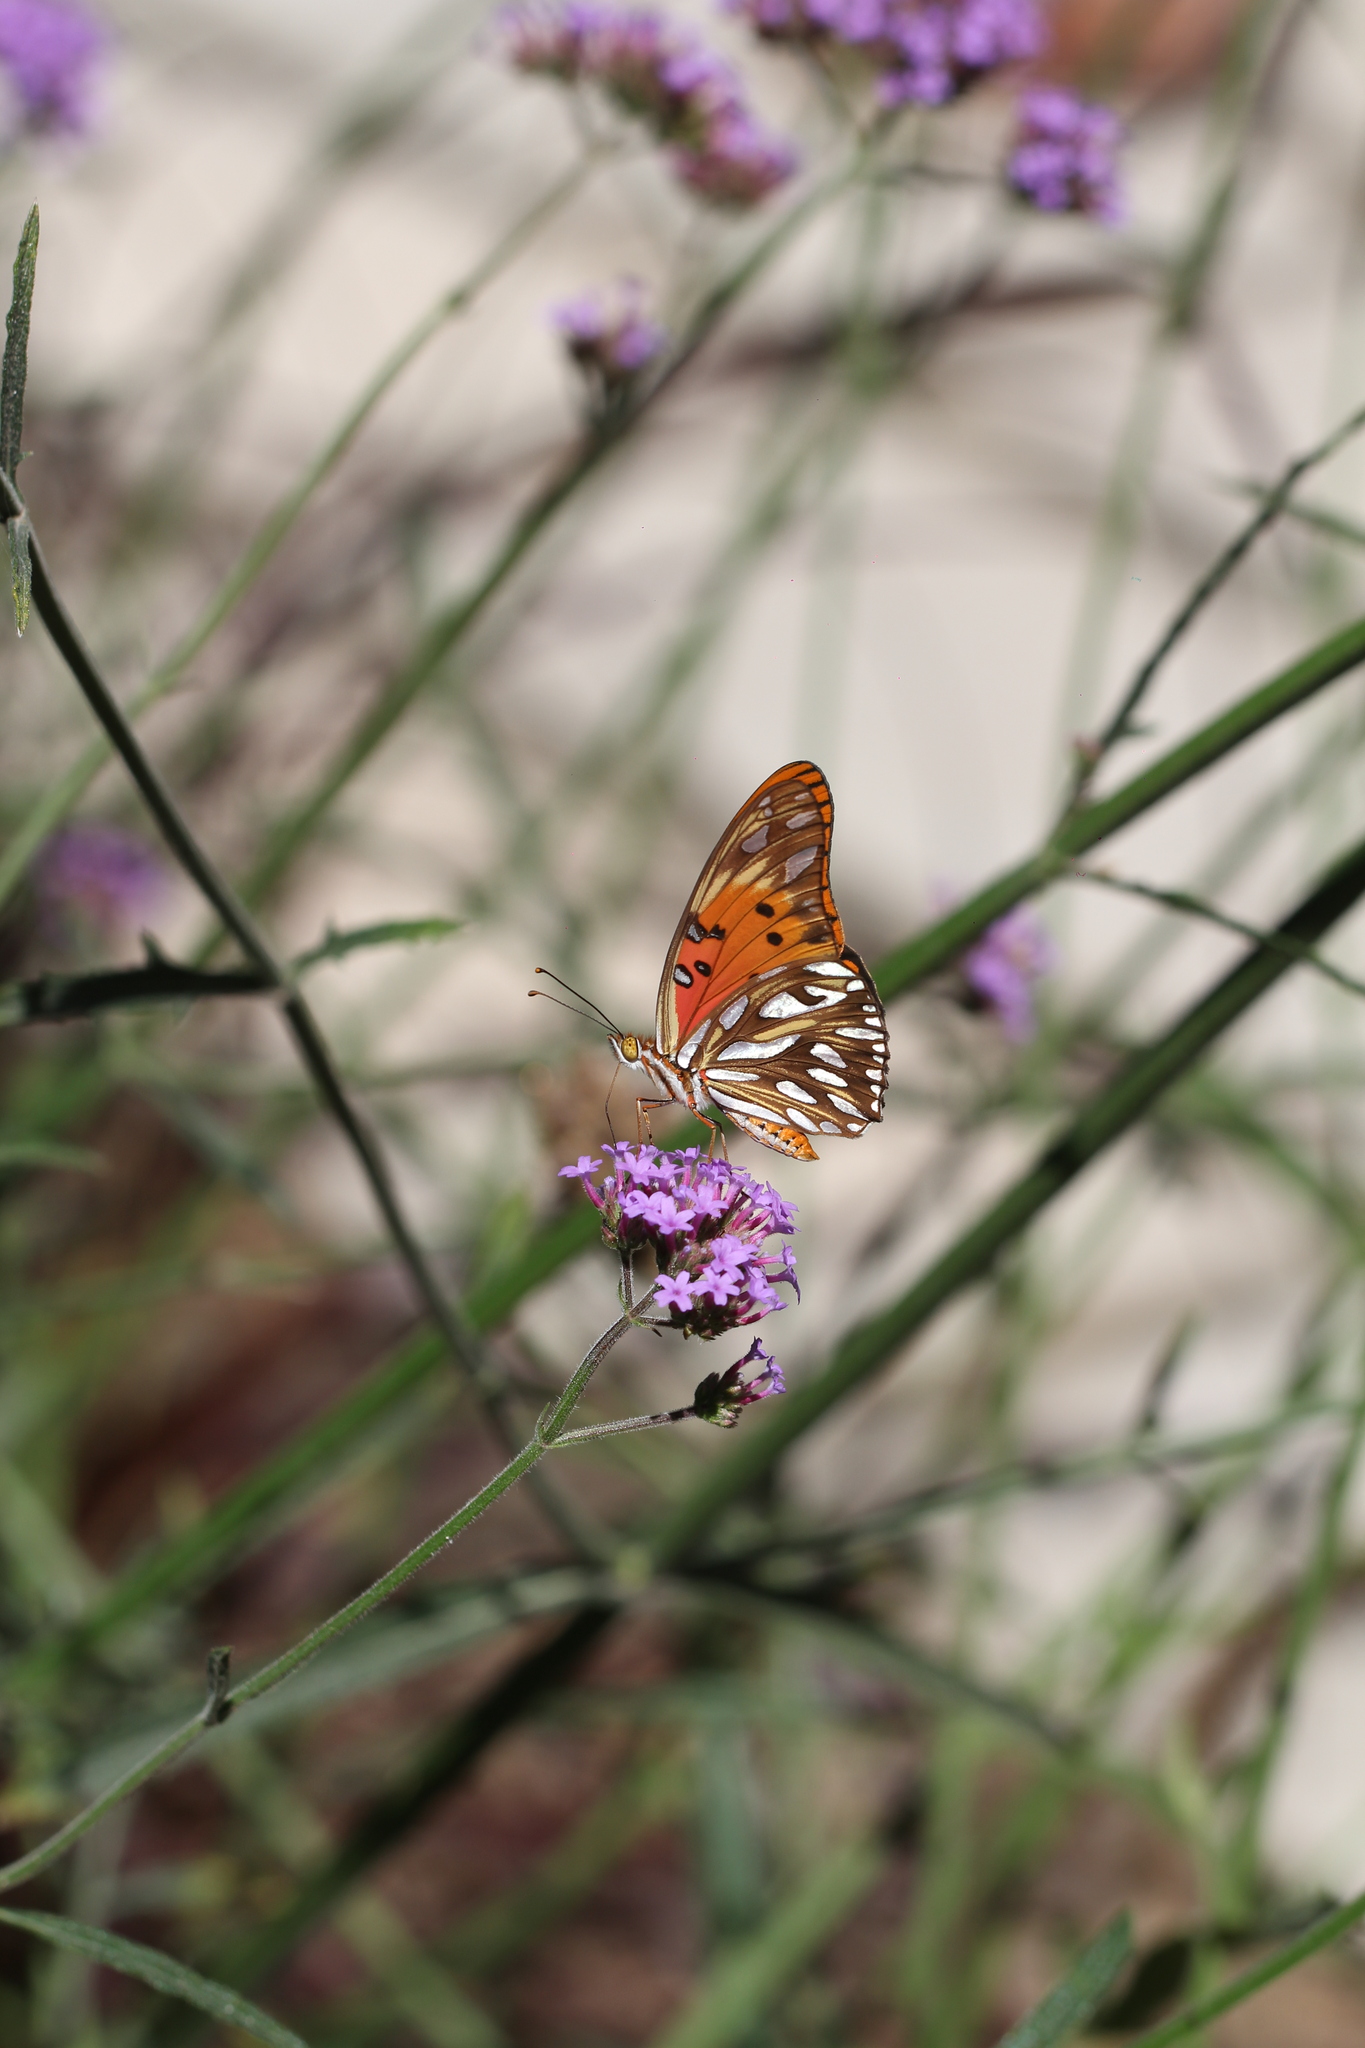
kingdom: Animalia
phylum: Arthropoda
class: Insecta
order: Lepidoptera
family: Nymphalidae
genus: Dione
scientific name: Dione vanillae
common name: Gulf fritillary
